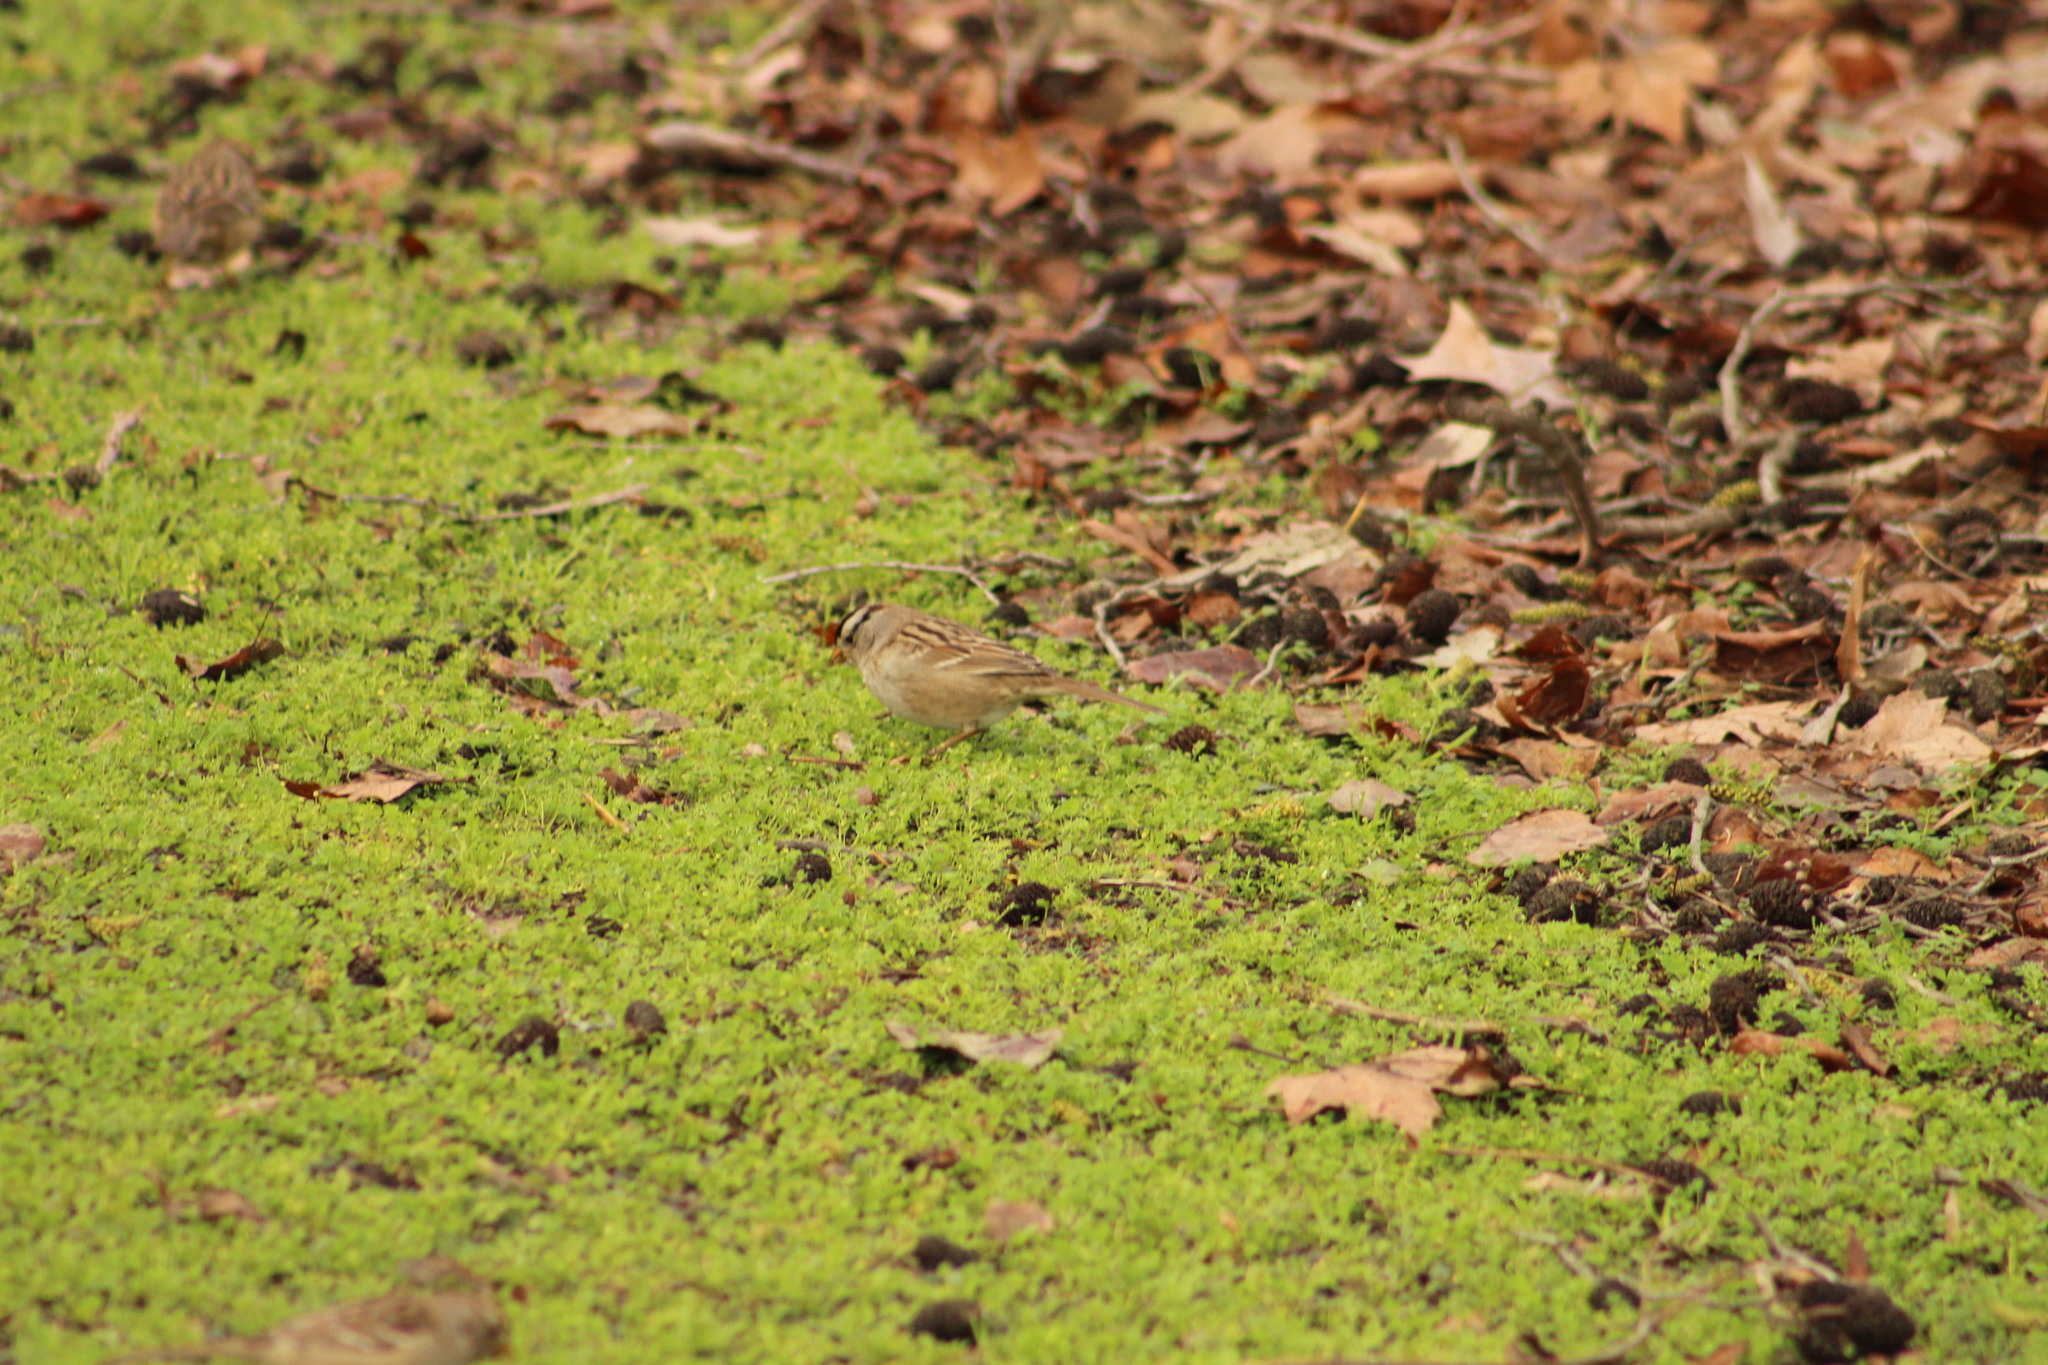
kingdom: Animalia
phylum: Chordata
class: Aves
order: Passeriformes
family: Passerellidae
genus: Zonotrichia
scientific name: Zonotrichia leucophrys
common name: White-crowned sparrow
